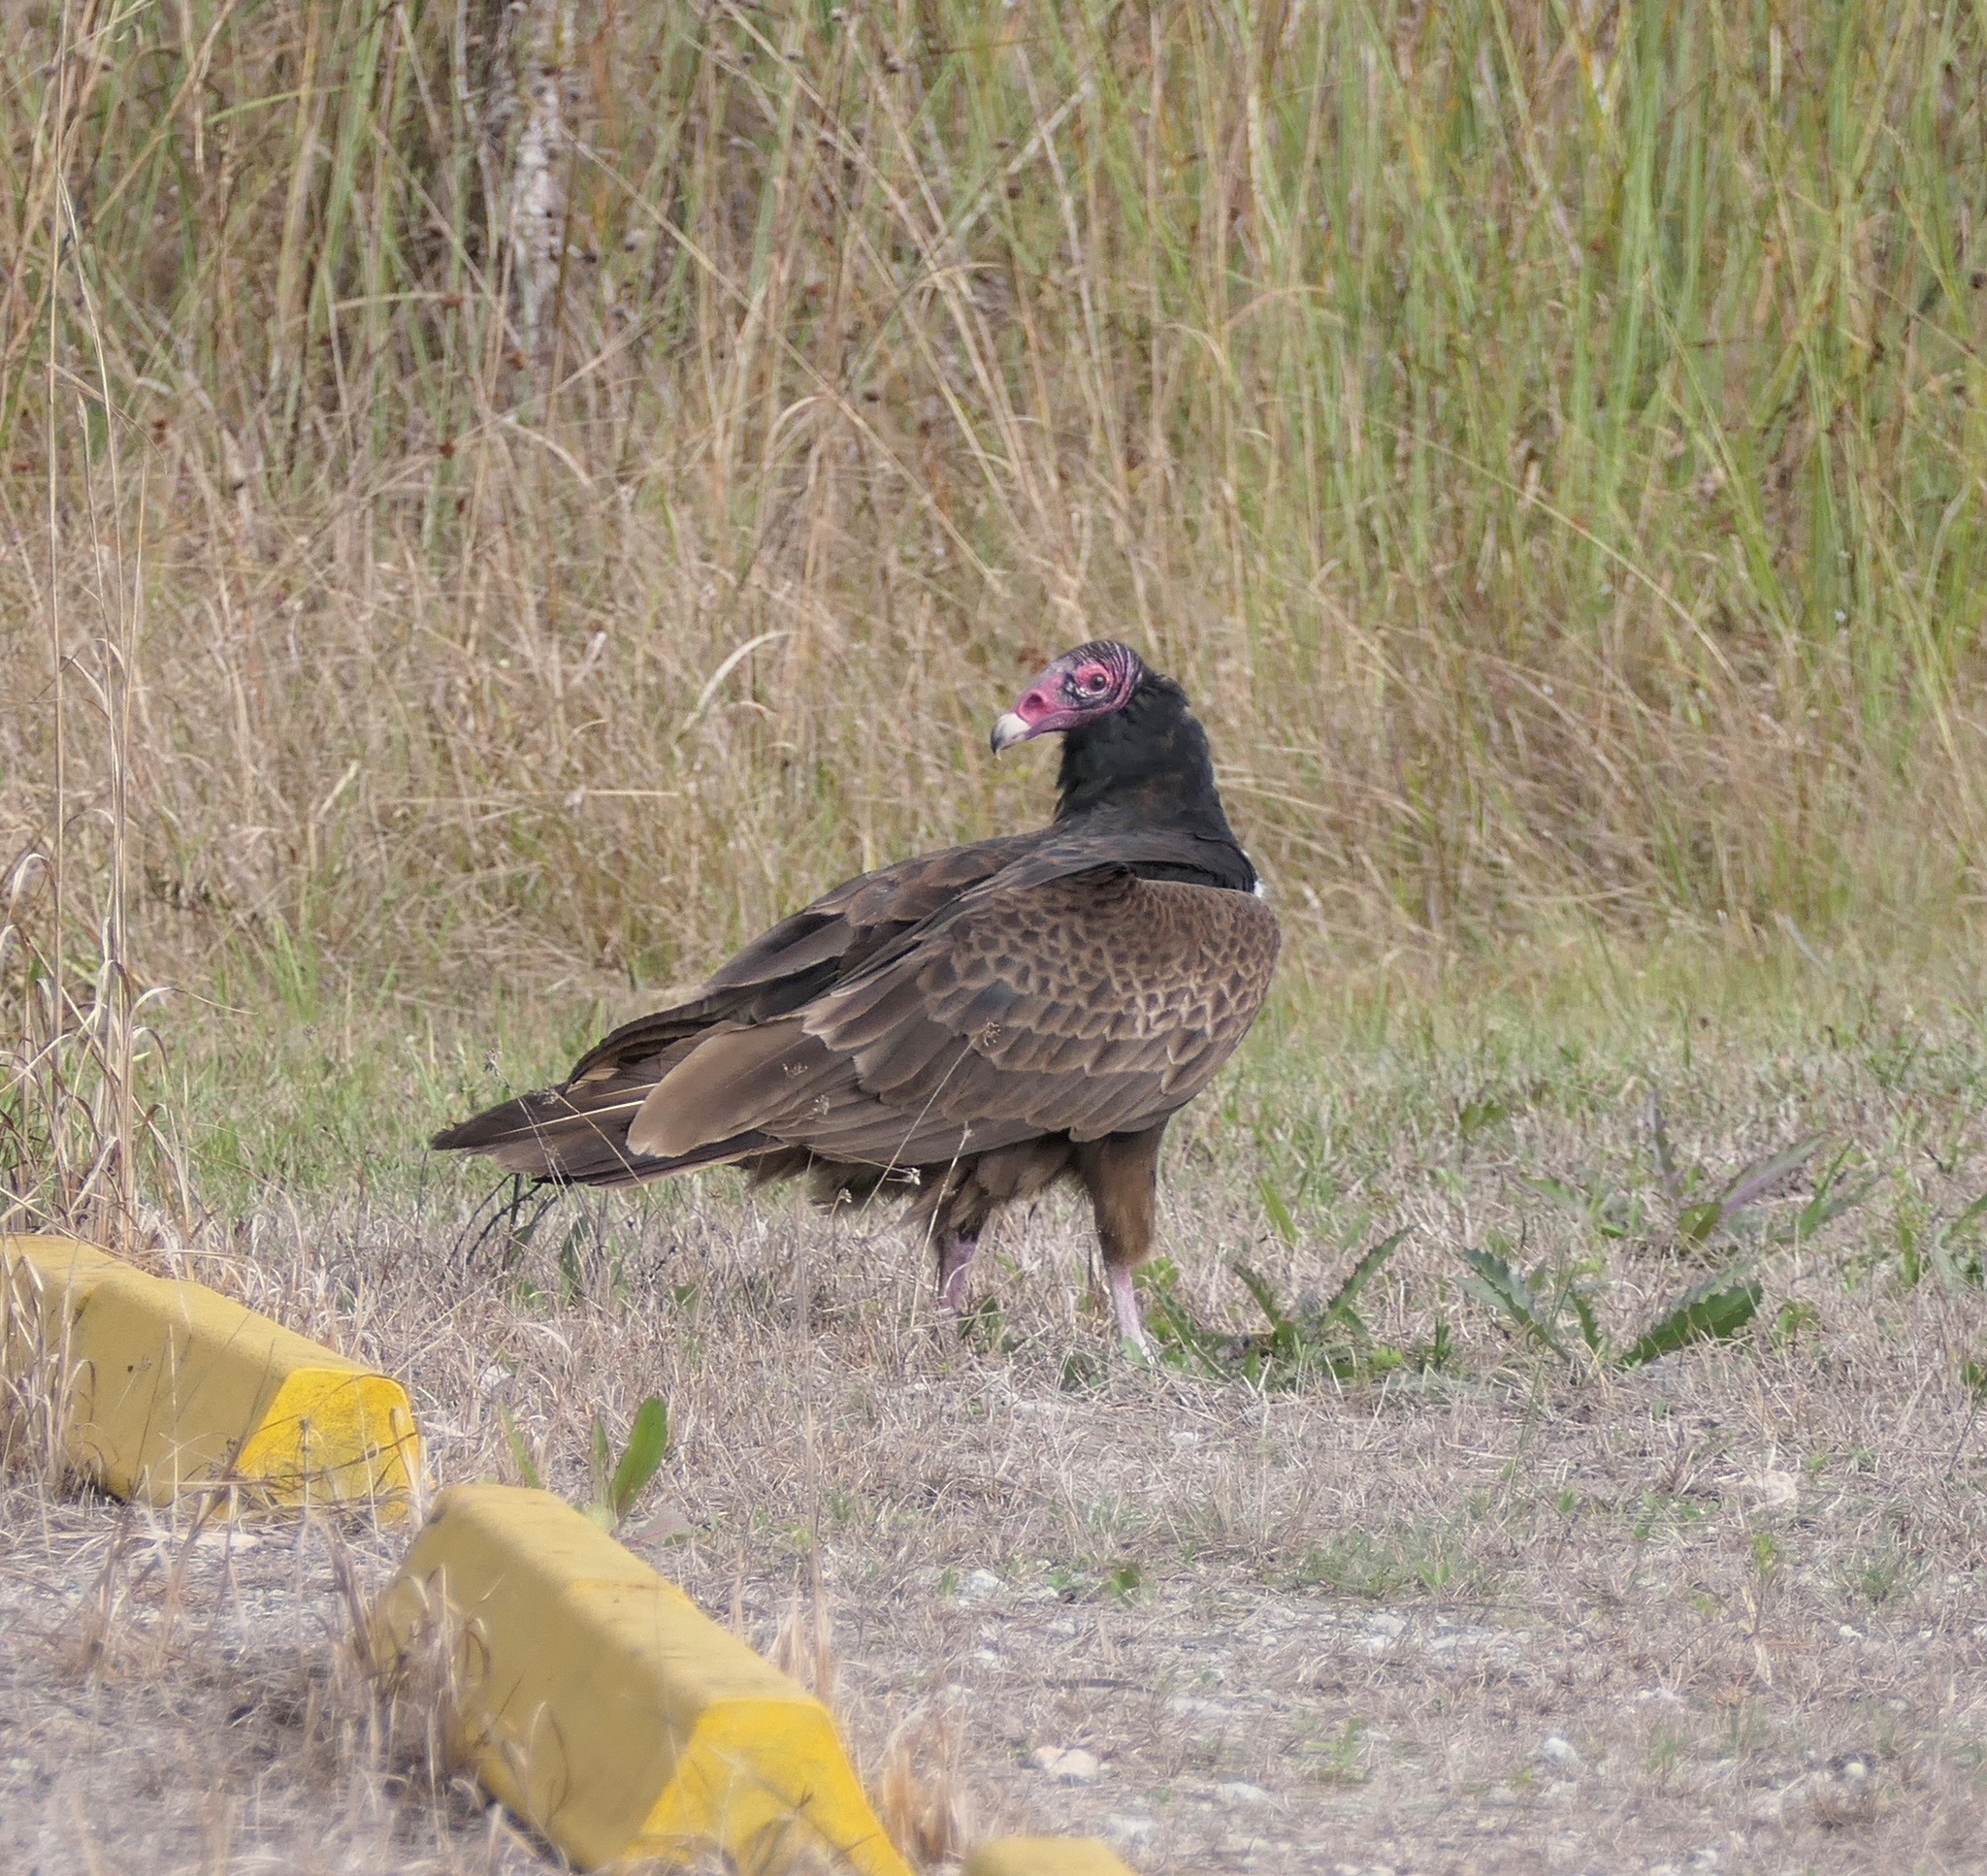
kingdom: Animalia
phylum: Chordata
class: Aves
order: Accipitriformes
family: Cathartidae
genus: Cathartes
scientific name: Cathartes aura
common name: Turkey vulture
